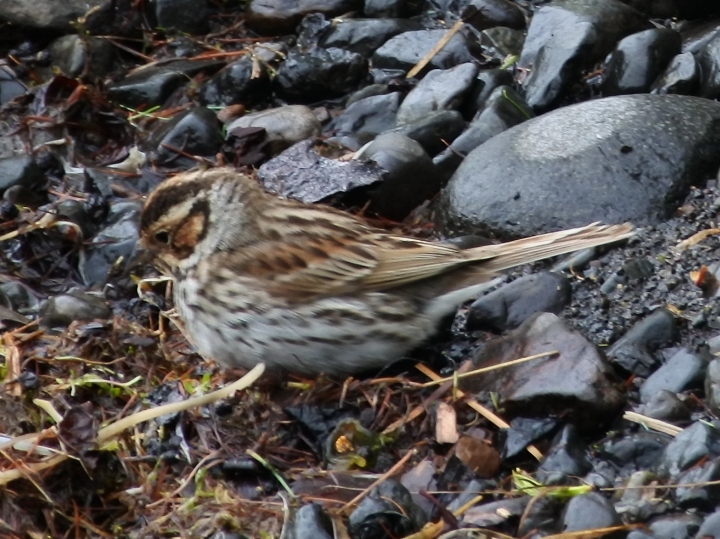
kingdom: Animalia
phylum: Chordata
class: Aves
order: Passeriformes
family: Emberizidae
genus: Emberiza
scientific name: Emberiza pusilla
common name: Little bunting
